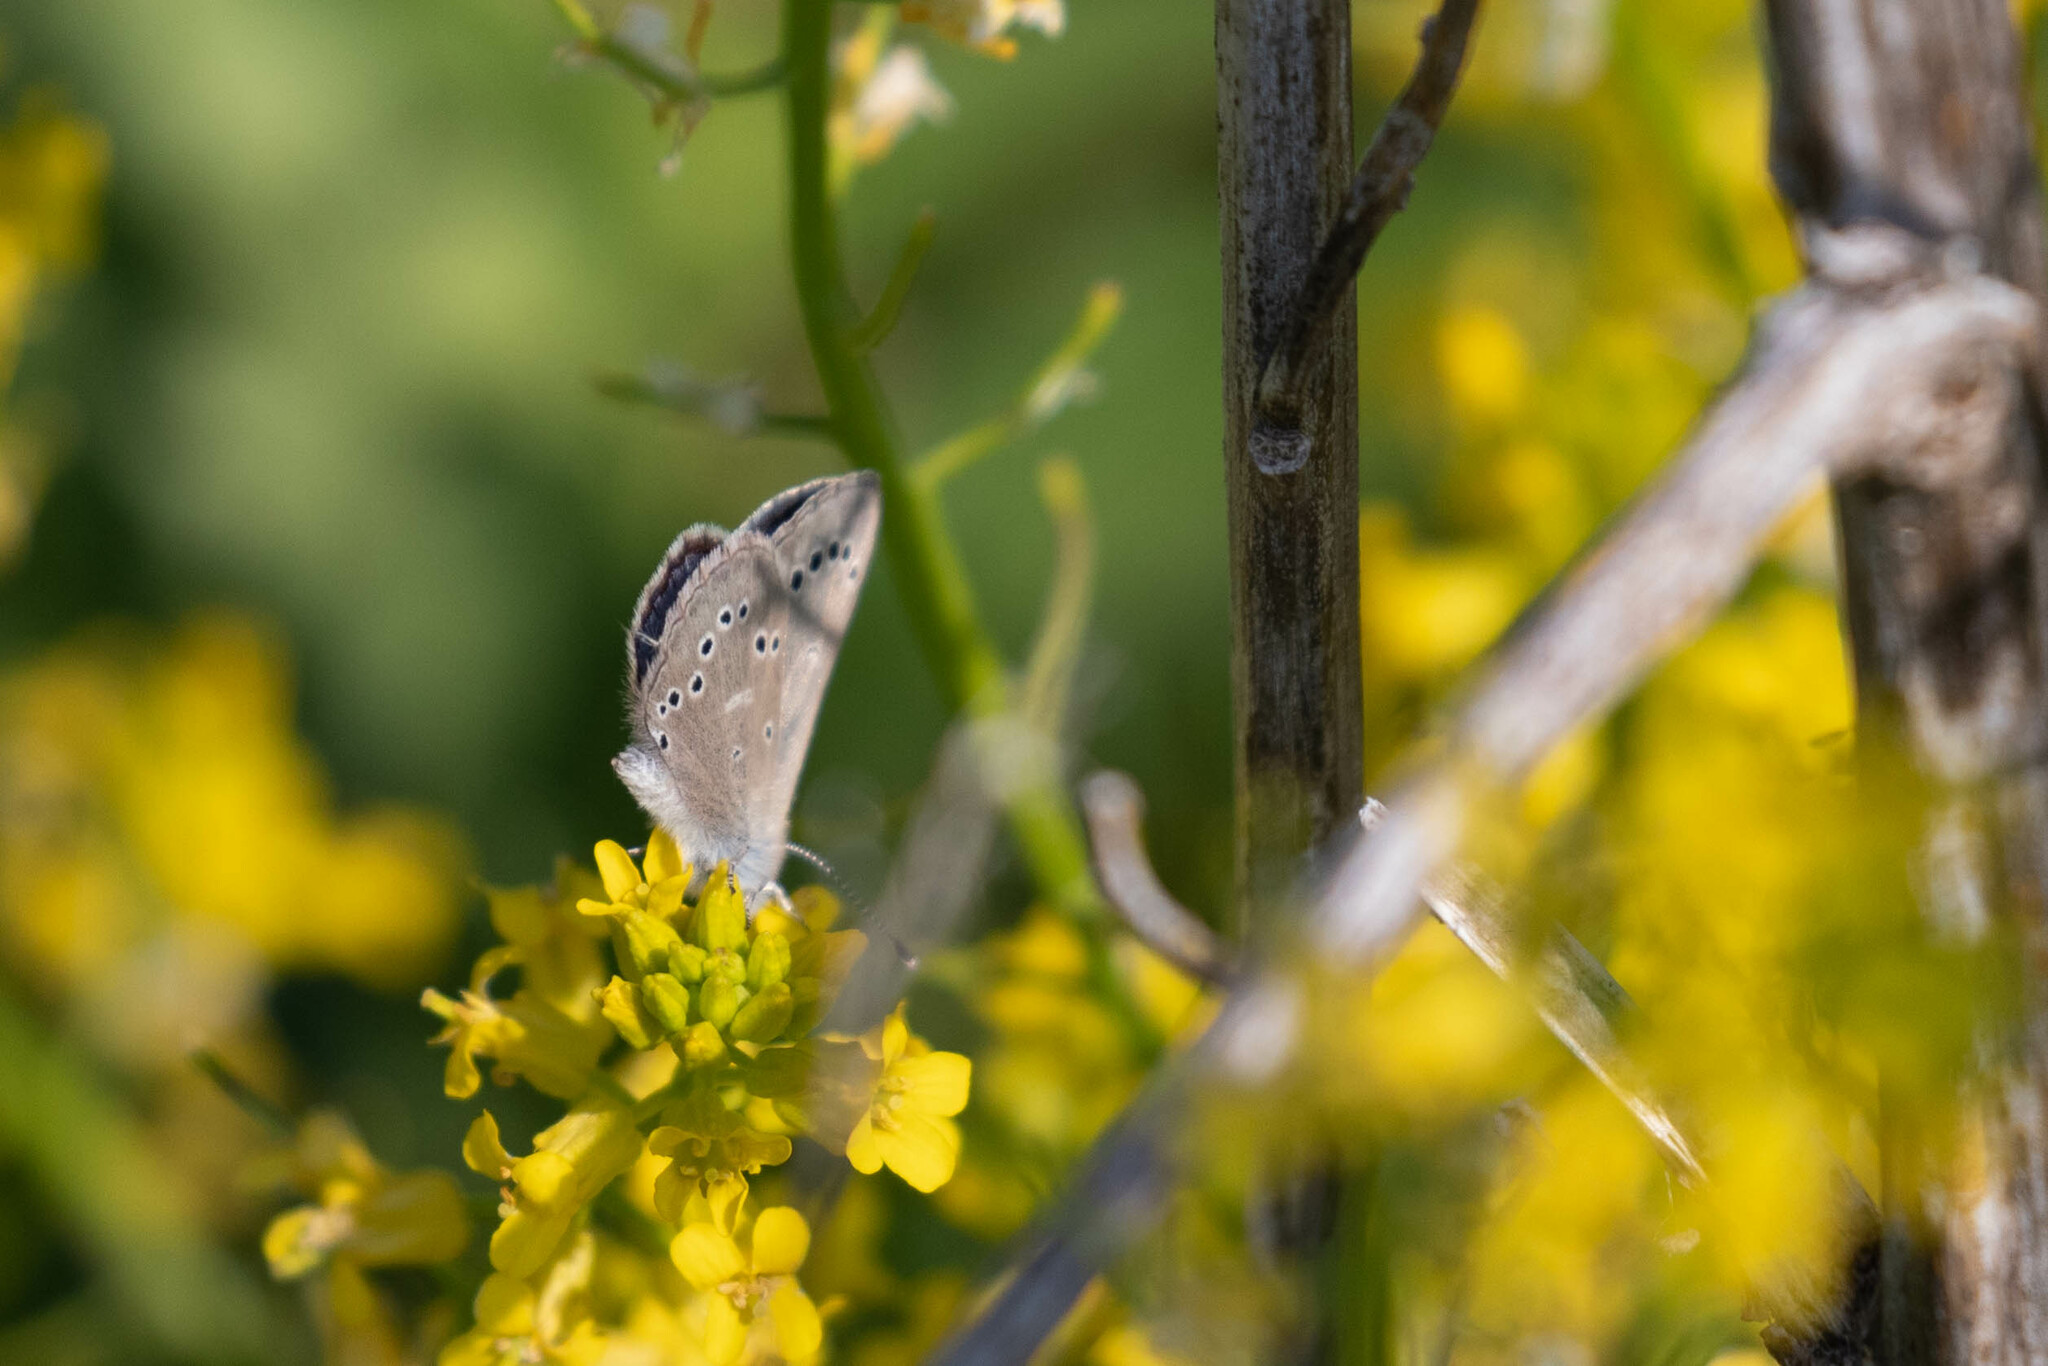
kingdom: Animalia
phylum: Arthropoda
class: Insecta
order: Lepidoptera
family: Lycaenidae
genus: Glaucopsyche
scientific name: Glaucopsyche lygdamus
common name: Silvery blue
